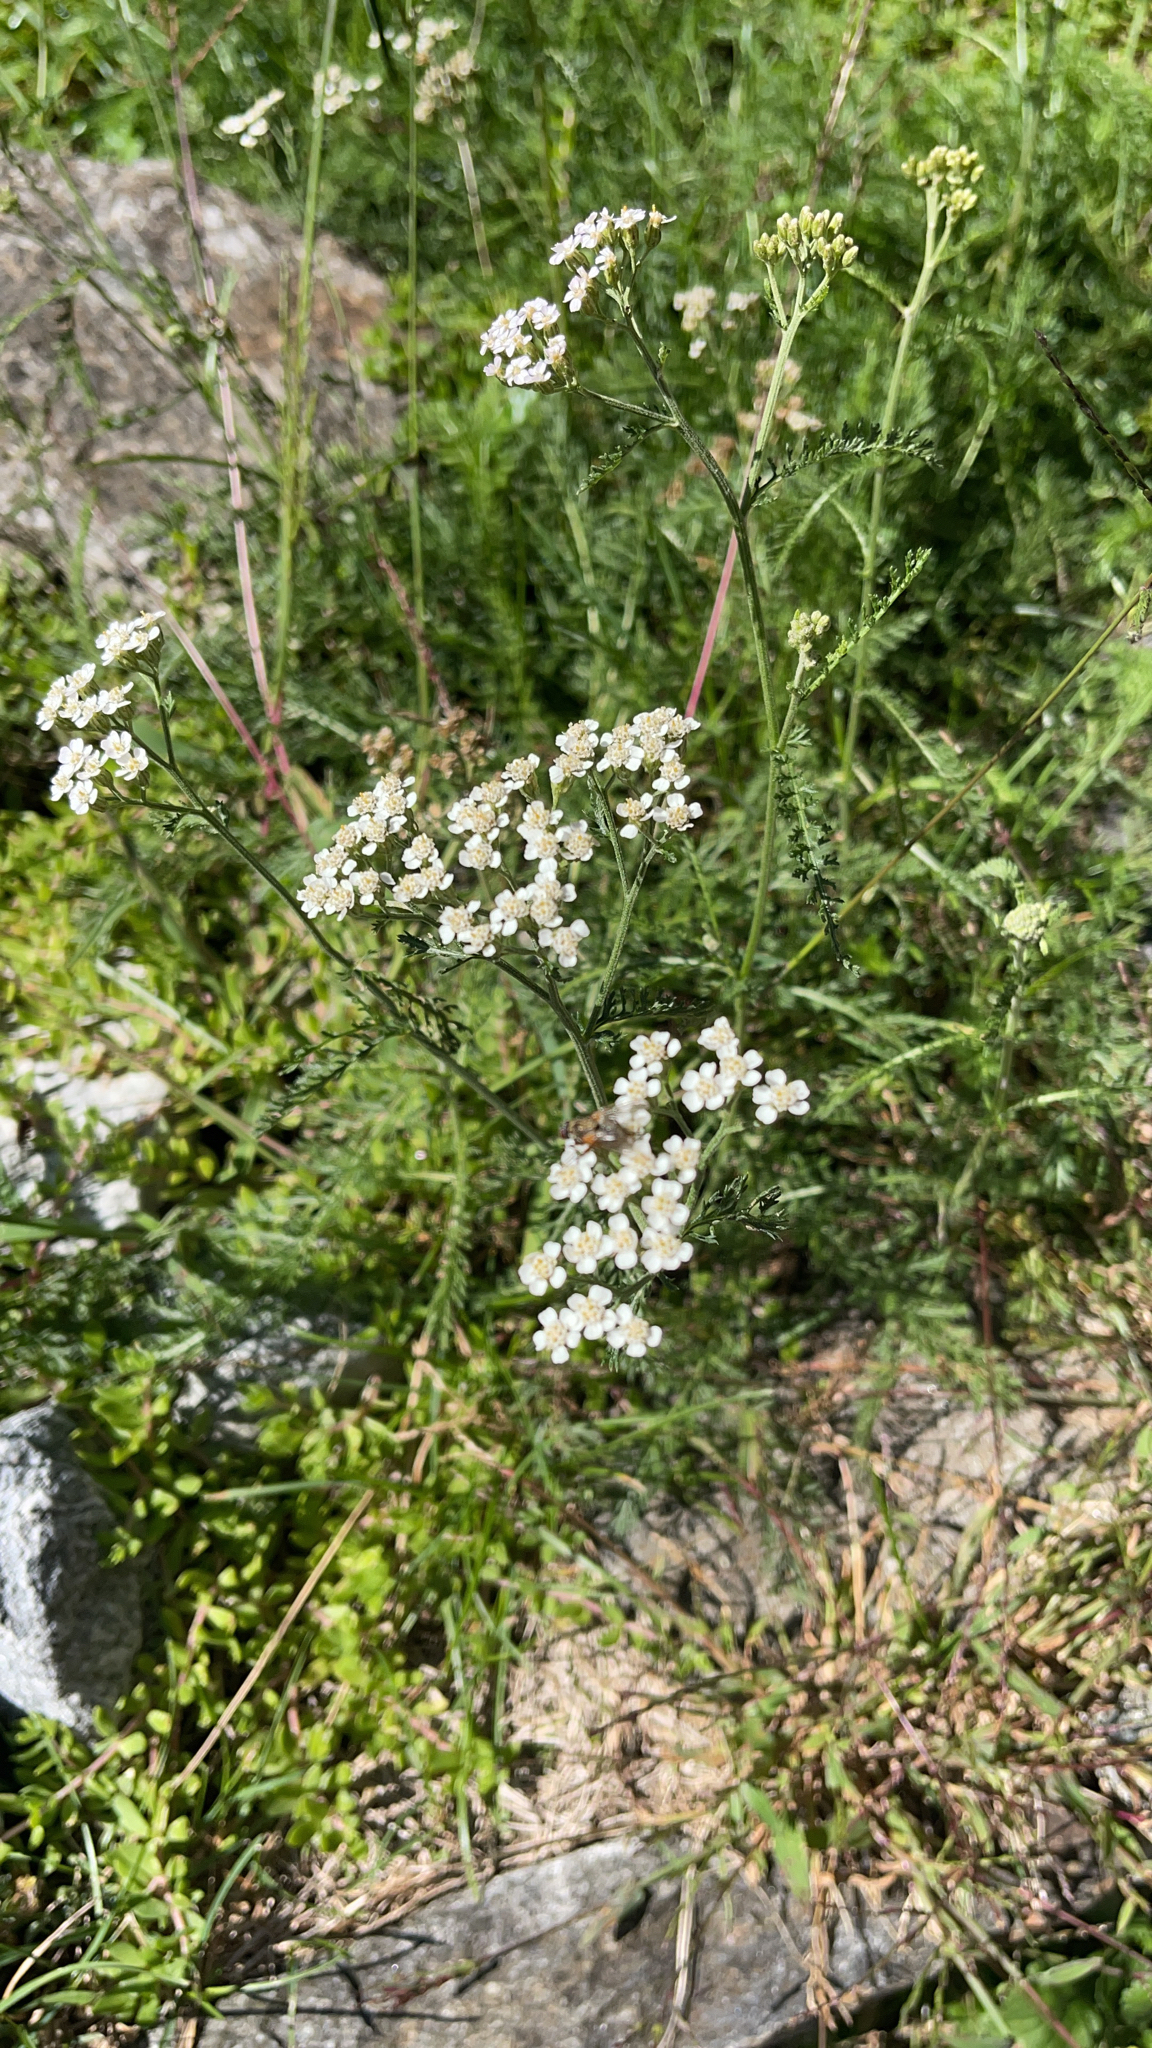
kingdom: Plantae
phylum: Tracheophyta
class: Magnoliopsida
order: Asterales
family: Asteraceae
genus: Achillea
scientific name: Achillea millefolium
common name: Yarrow
